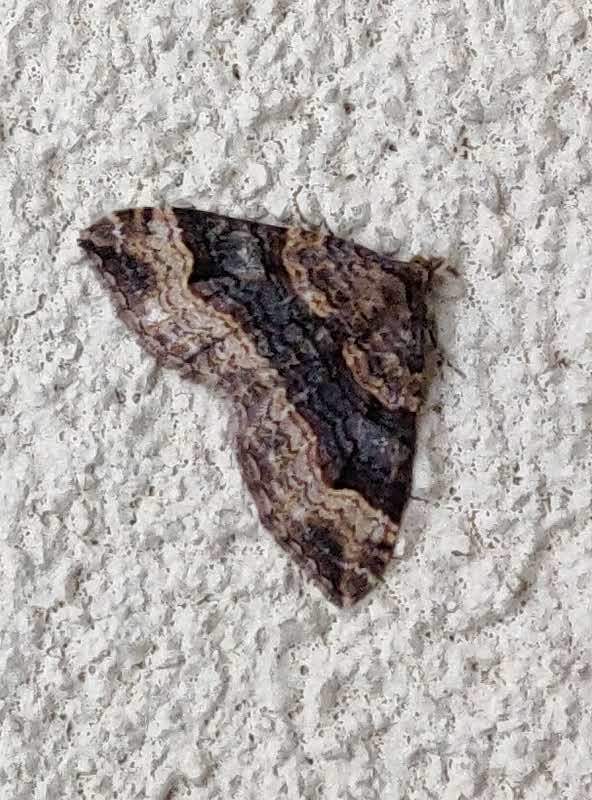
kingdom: Animalia
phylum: Arthropoda
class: Insecta
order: Lepidoptera
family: Geometridae
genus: Epyaxa
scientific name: Epyaxa subidaria
